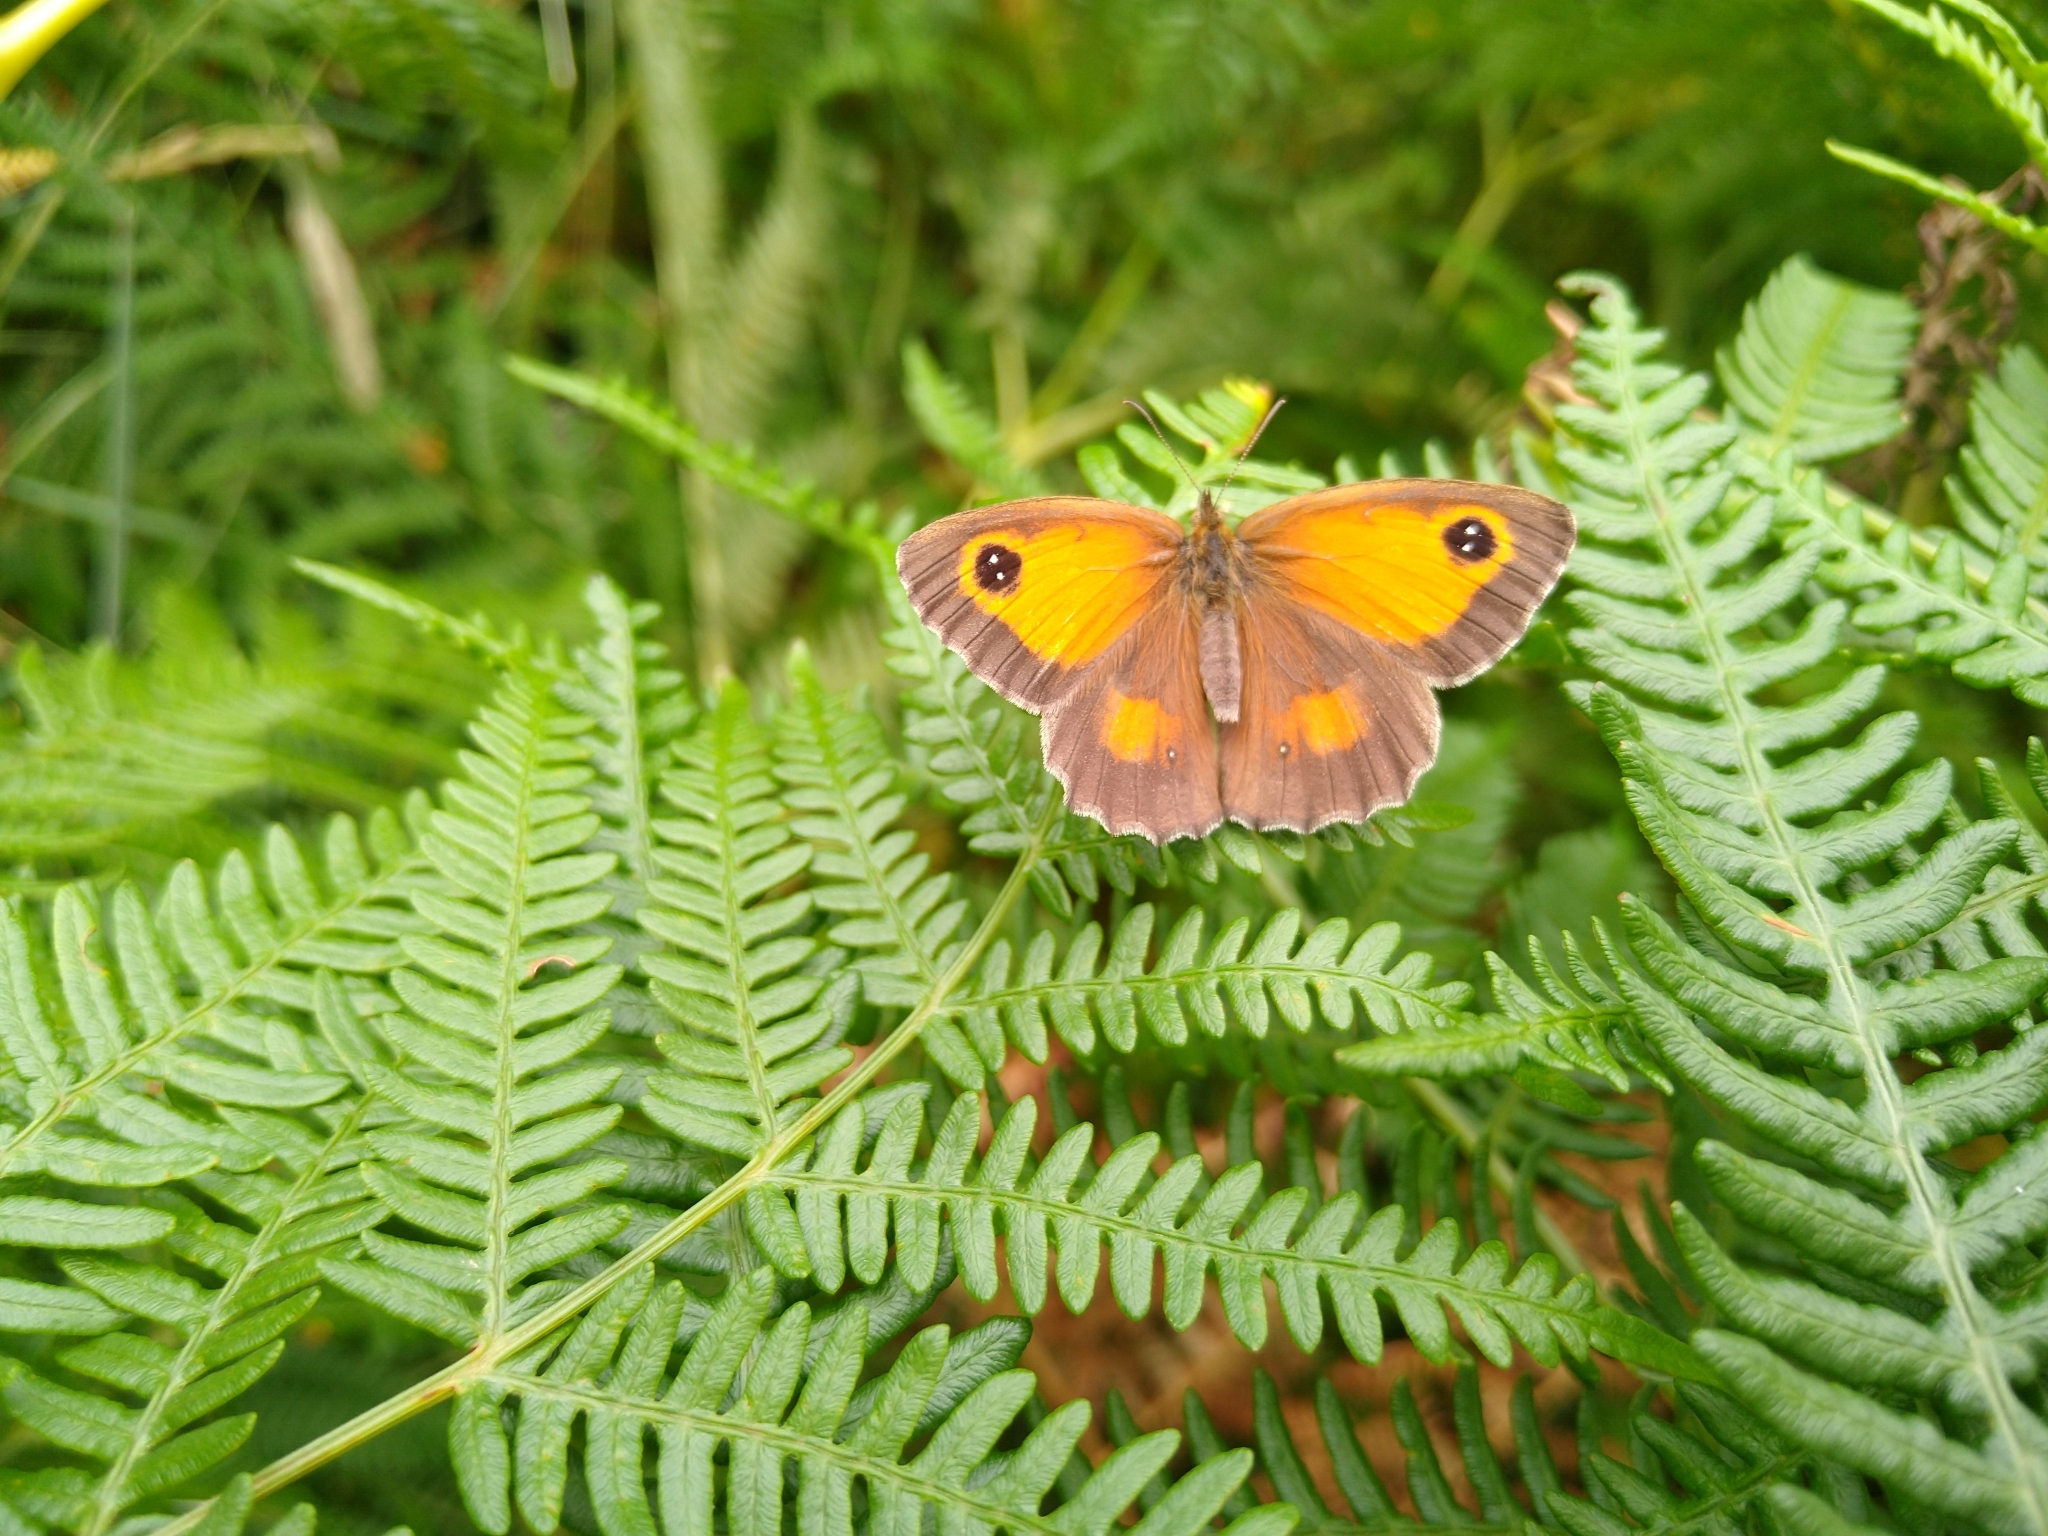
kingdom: Animalia
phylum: Arthropoda
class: Insecta
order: Lepidoptera
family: Nymphalidae
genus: Pyronia
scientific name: Pyronia tithonus
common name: Gatekeeper
